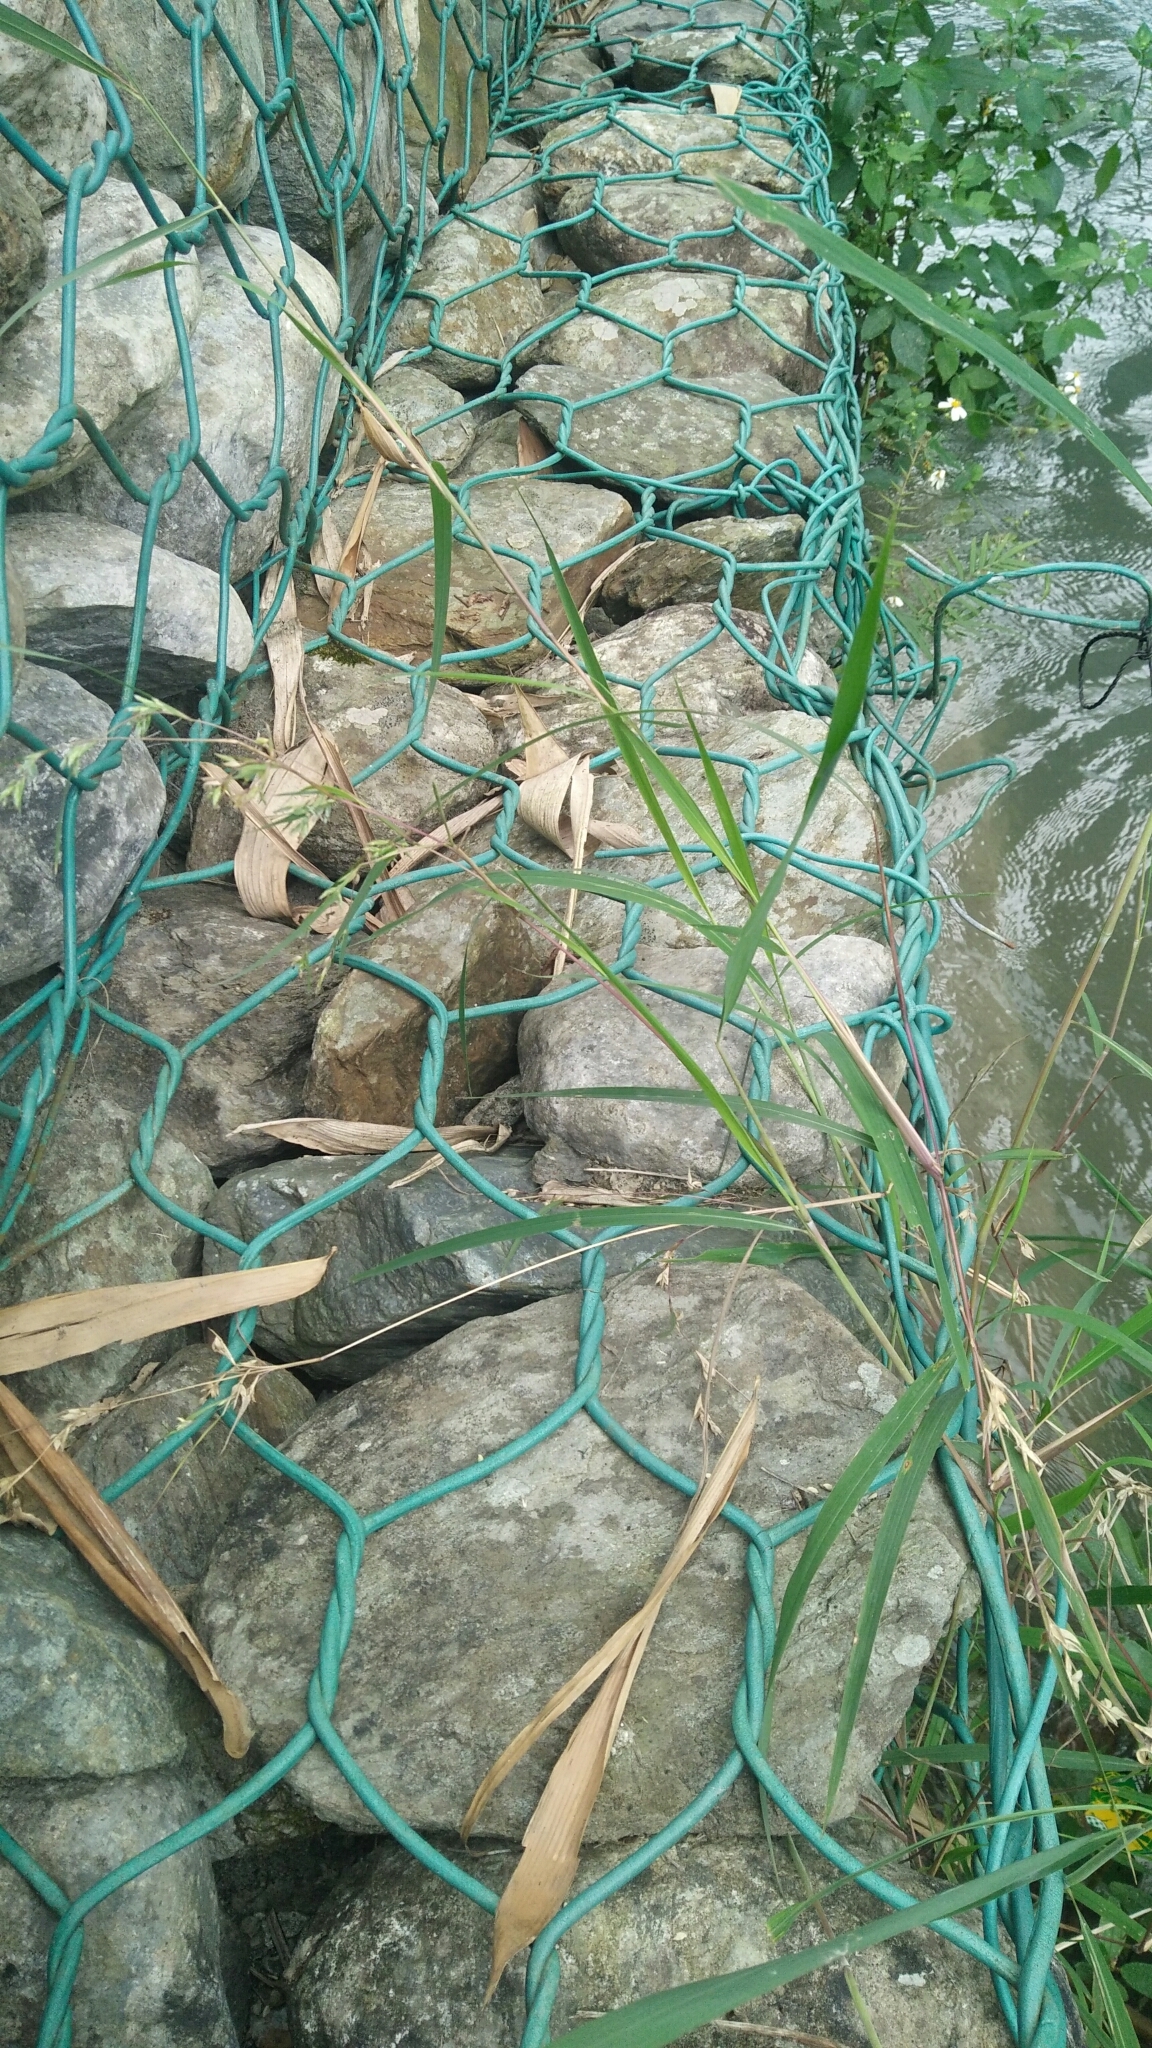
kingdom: Plantae
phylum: Tracheophyta
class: Liliopsida
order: Poales
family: Poaceae
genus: Apluda
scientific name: Apluda mutica
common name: Mauritian grass
